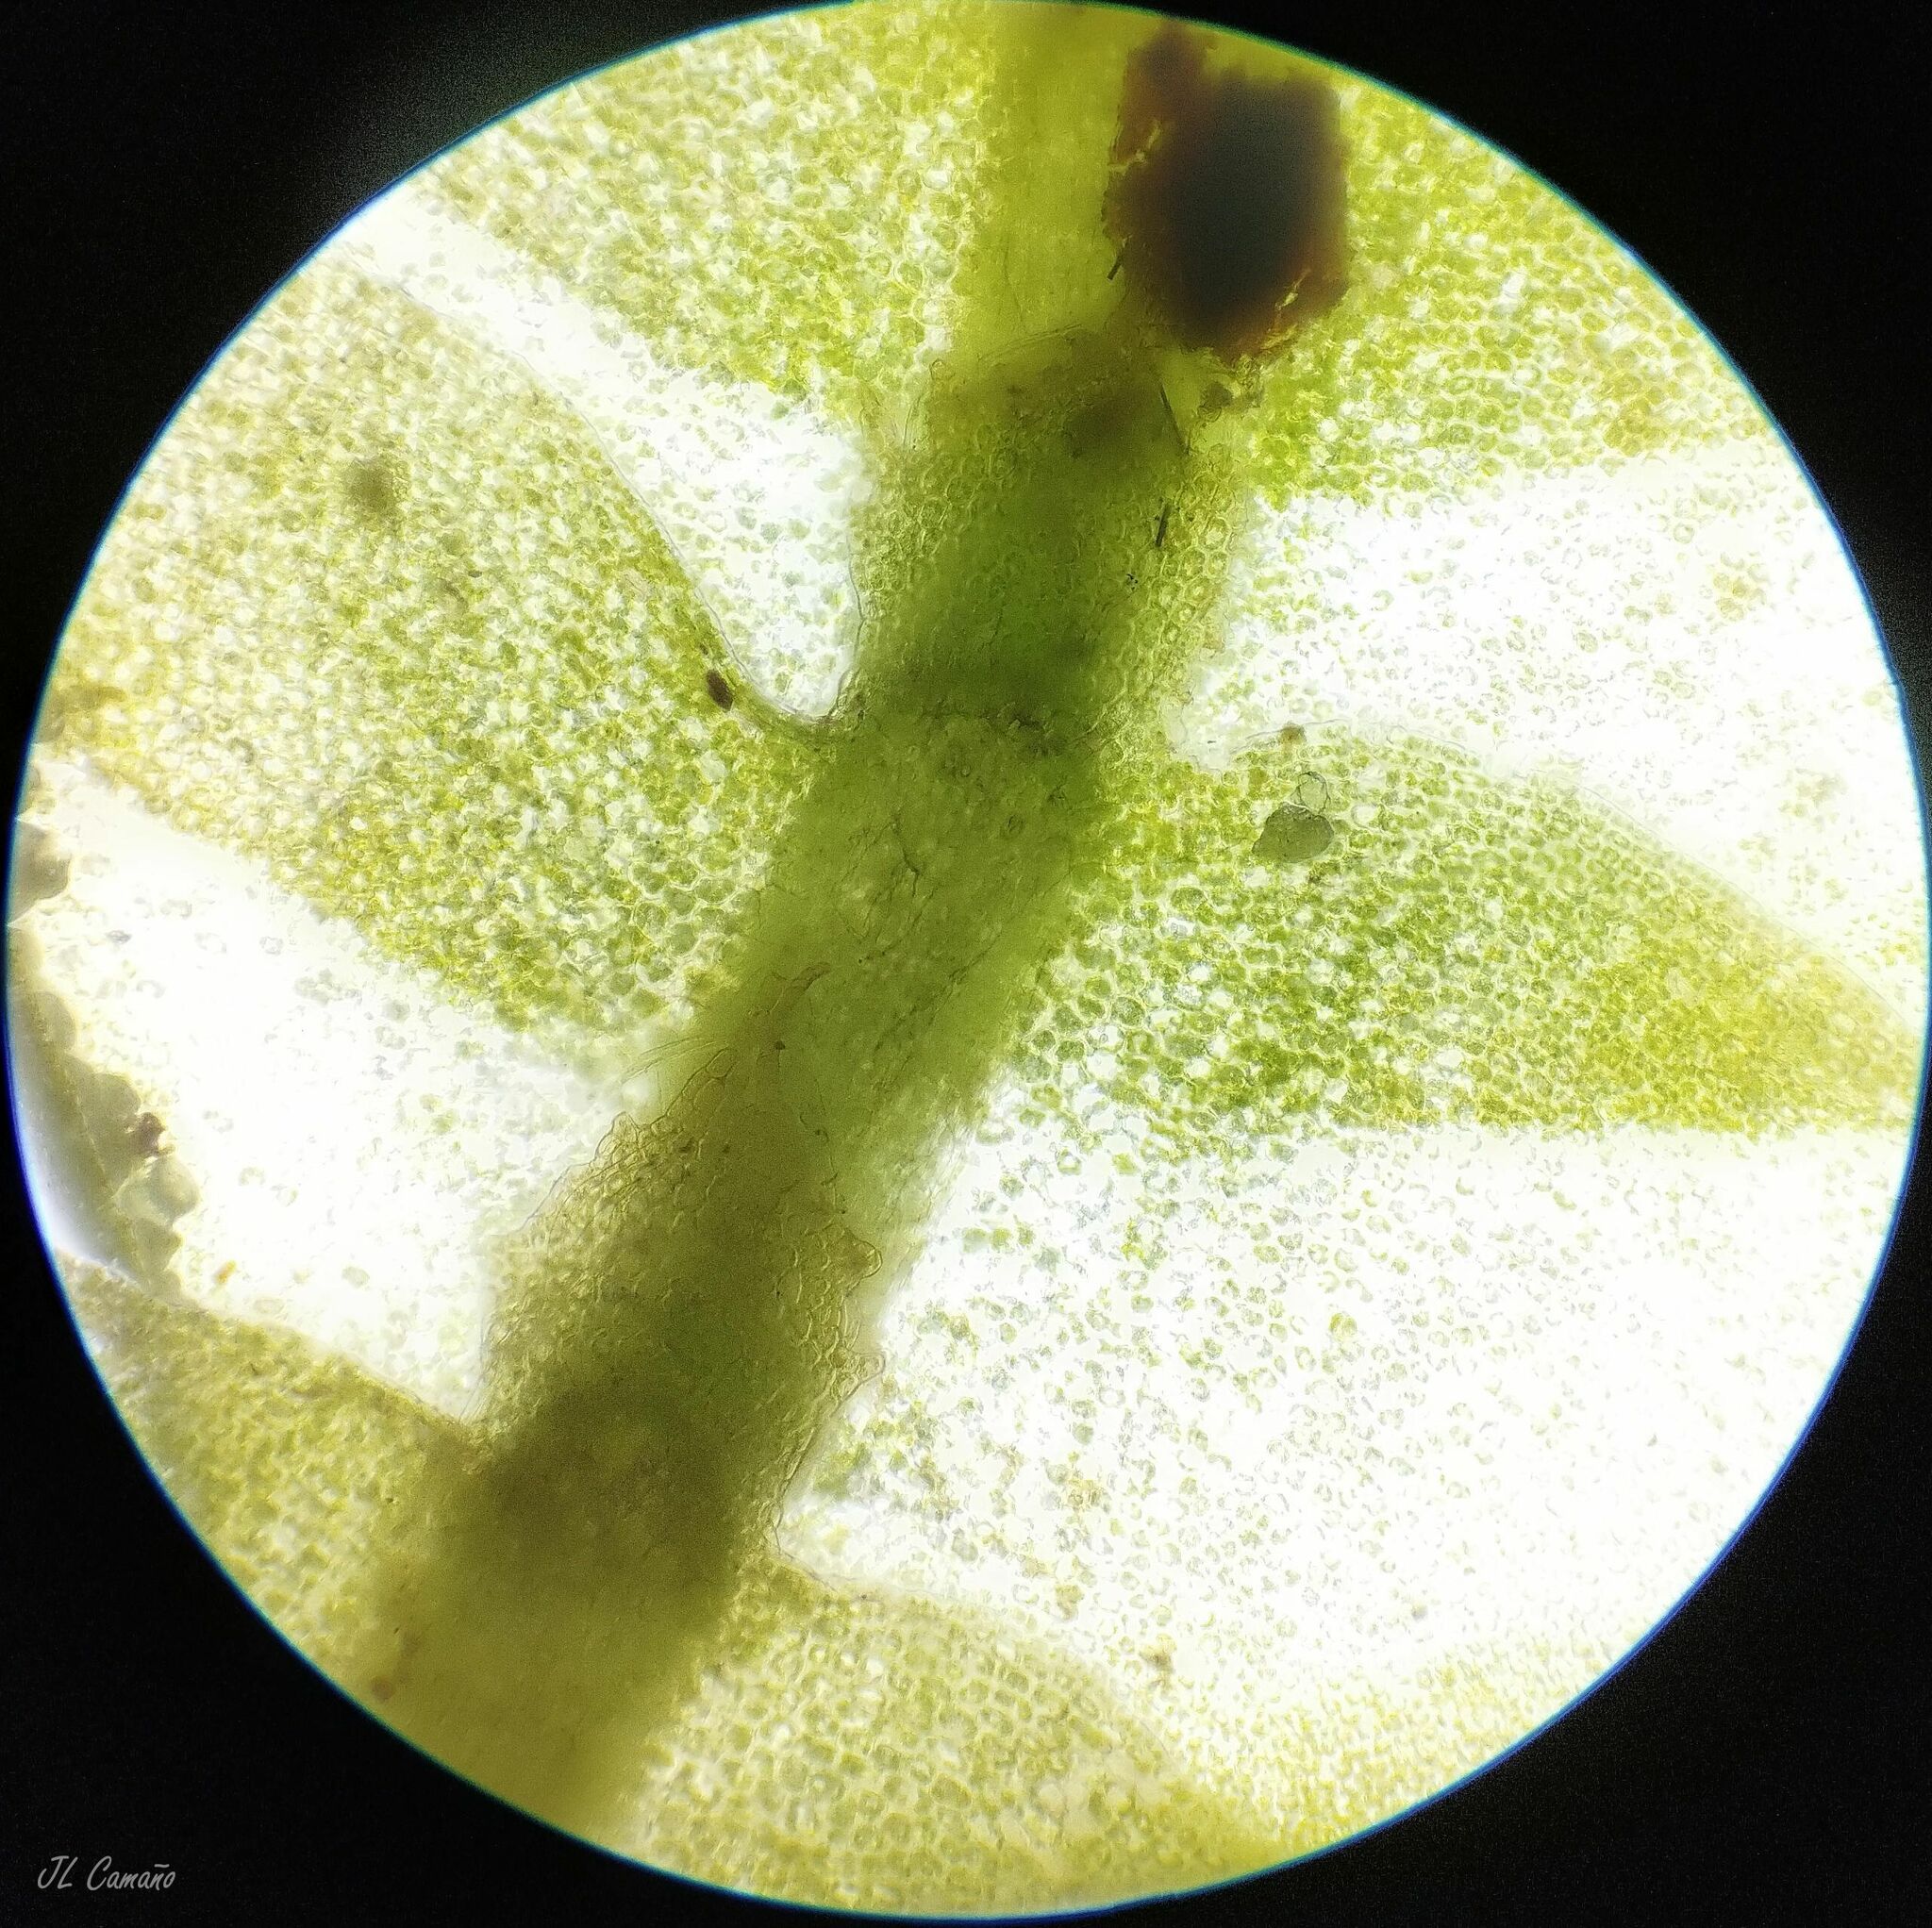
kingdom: Plantae
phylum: Marchantiophyta
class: Jungermanniopsida
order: Jungermanniales
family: Saccogynaceae
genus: Saccogyna
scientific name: Saccogyna viticulosa
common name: Straggling pouchwort
